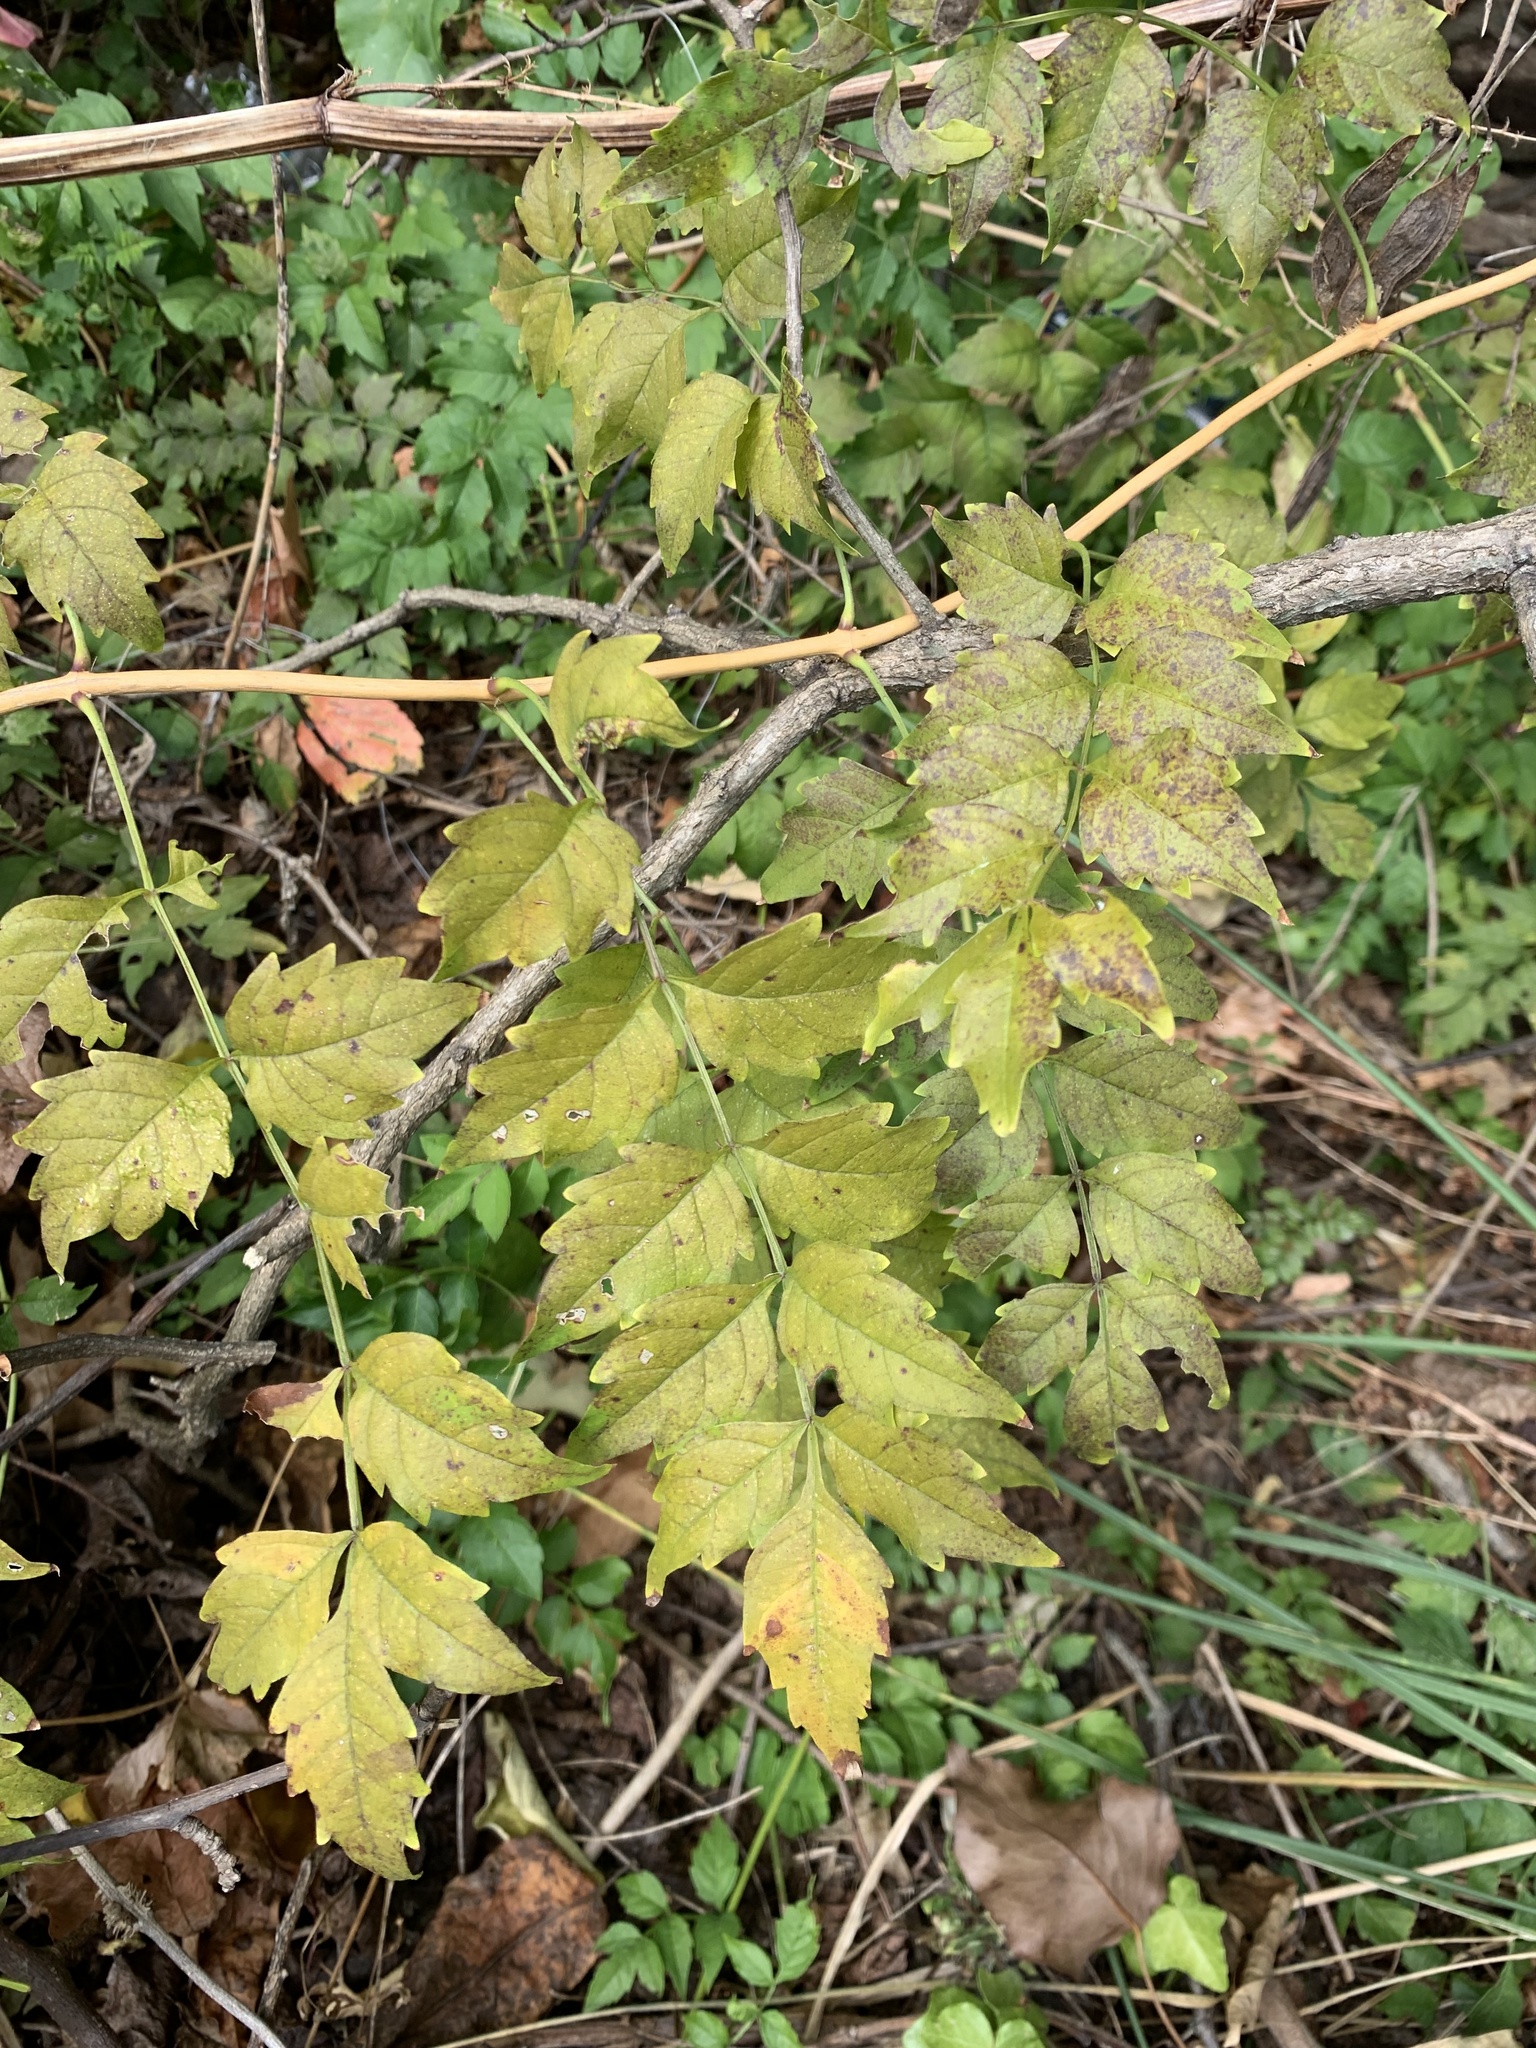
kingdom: Plantae
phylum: Tracheophyta
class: Magnoliopsida
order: Lamiales
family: Bignoniaceae
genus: Campsis
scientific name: Campsis radicans
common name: Trumpet-creeper
